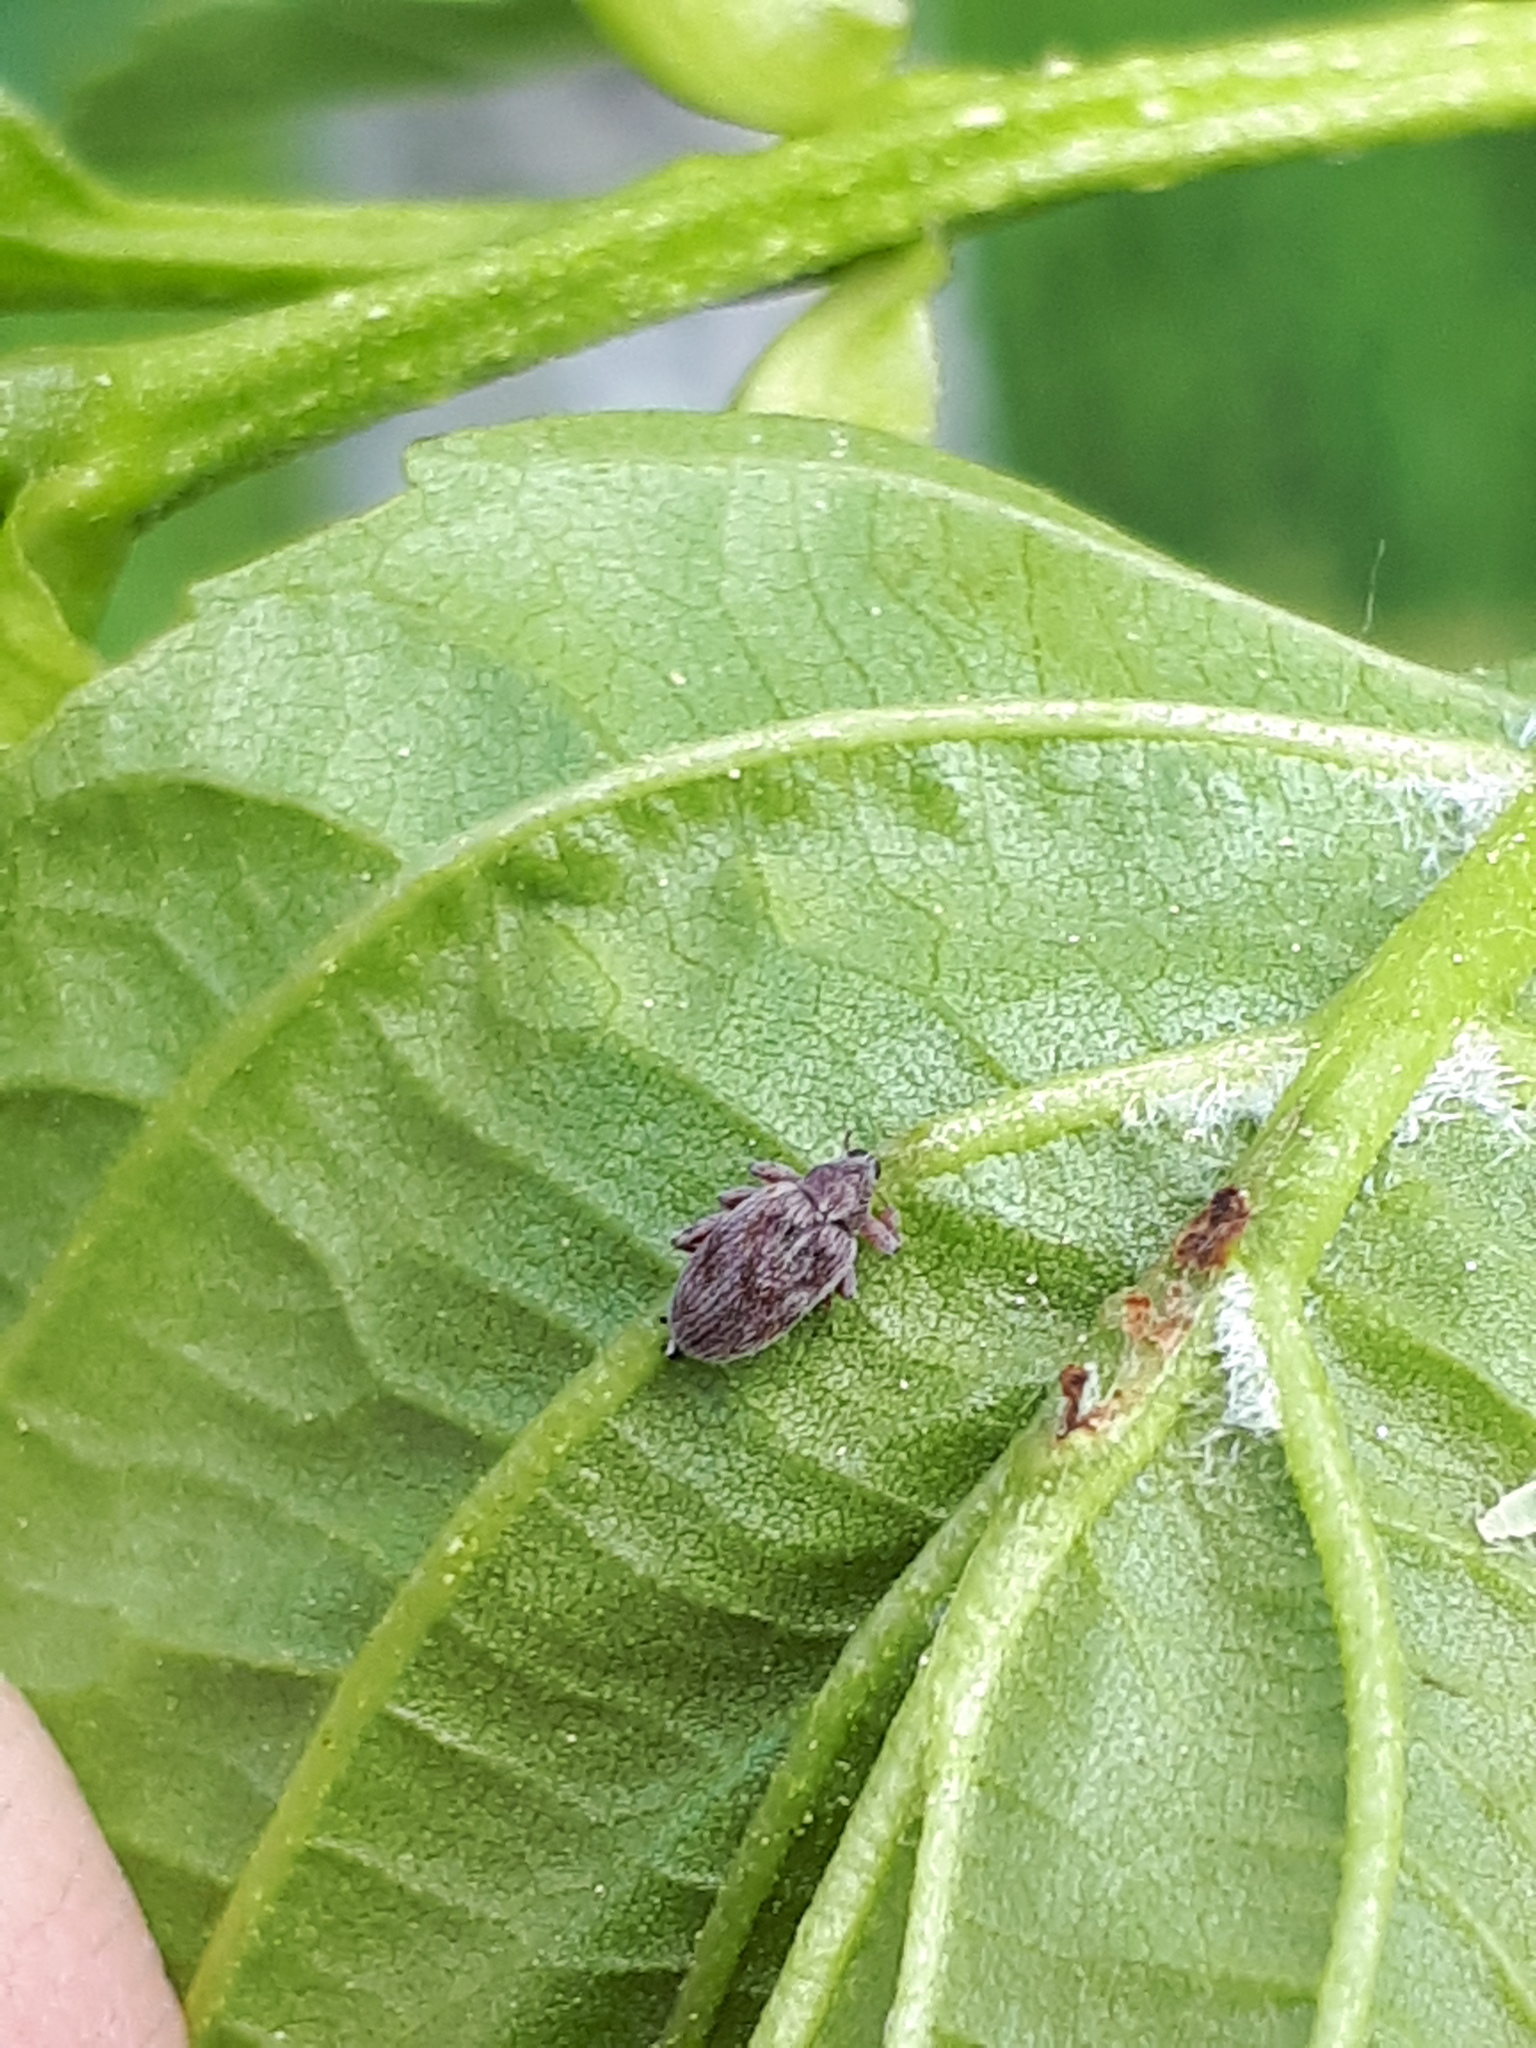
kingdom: Animalia
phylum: Arthropoda
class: Insecta
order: Coleoptera
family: Curculionidae
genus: Orchestes
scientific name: Orchestes testaceus
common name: Jumping weevil
